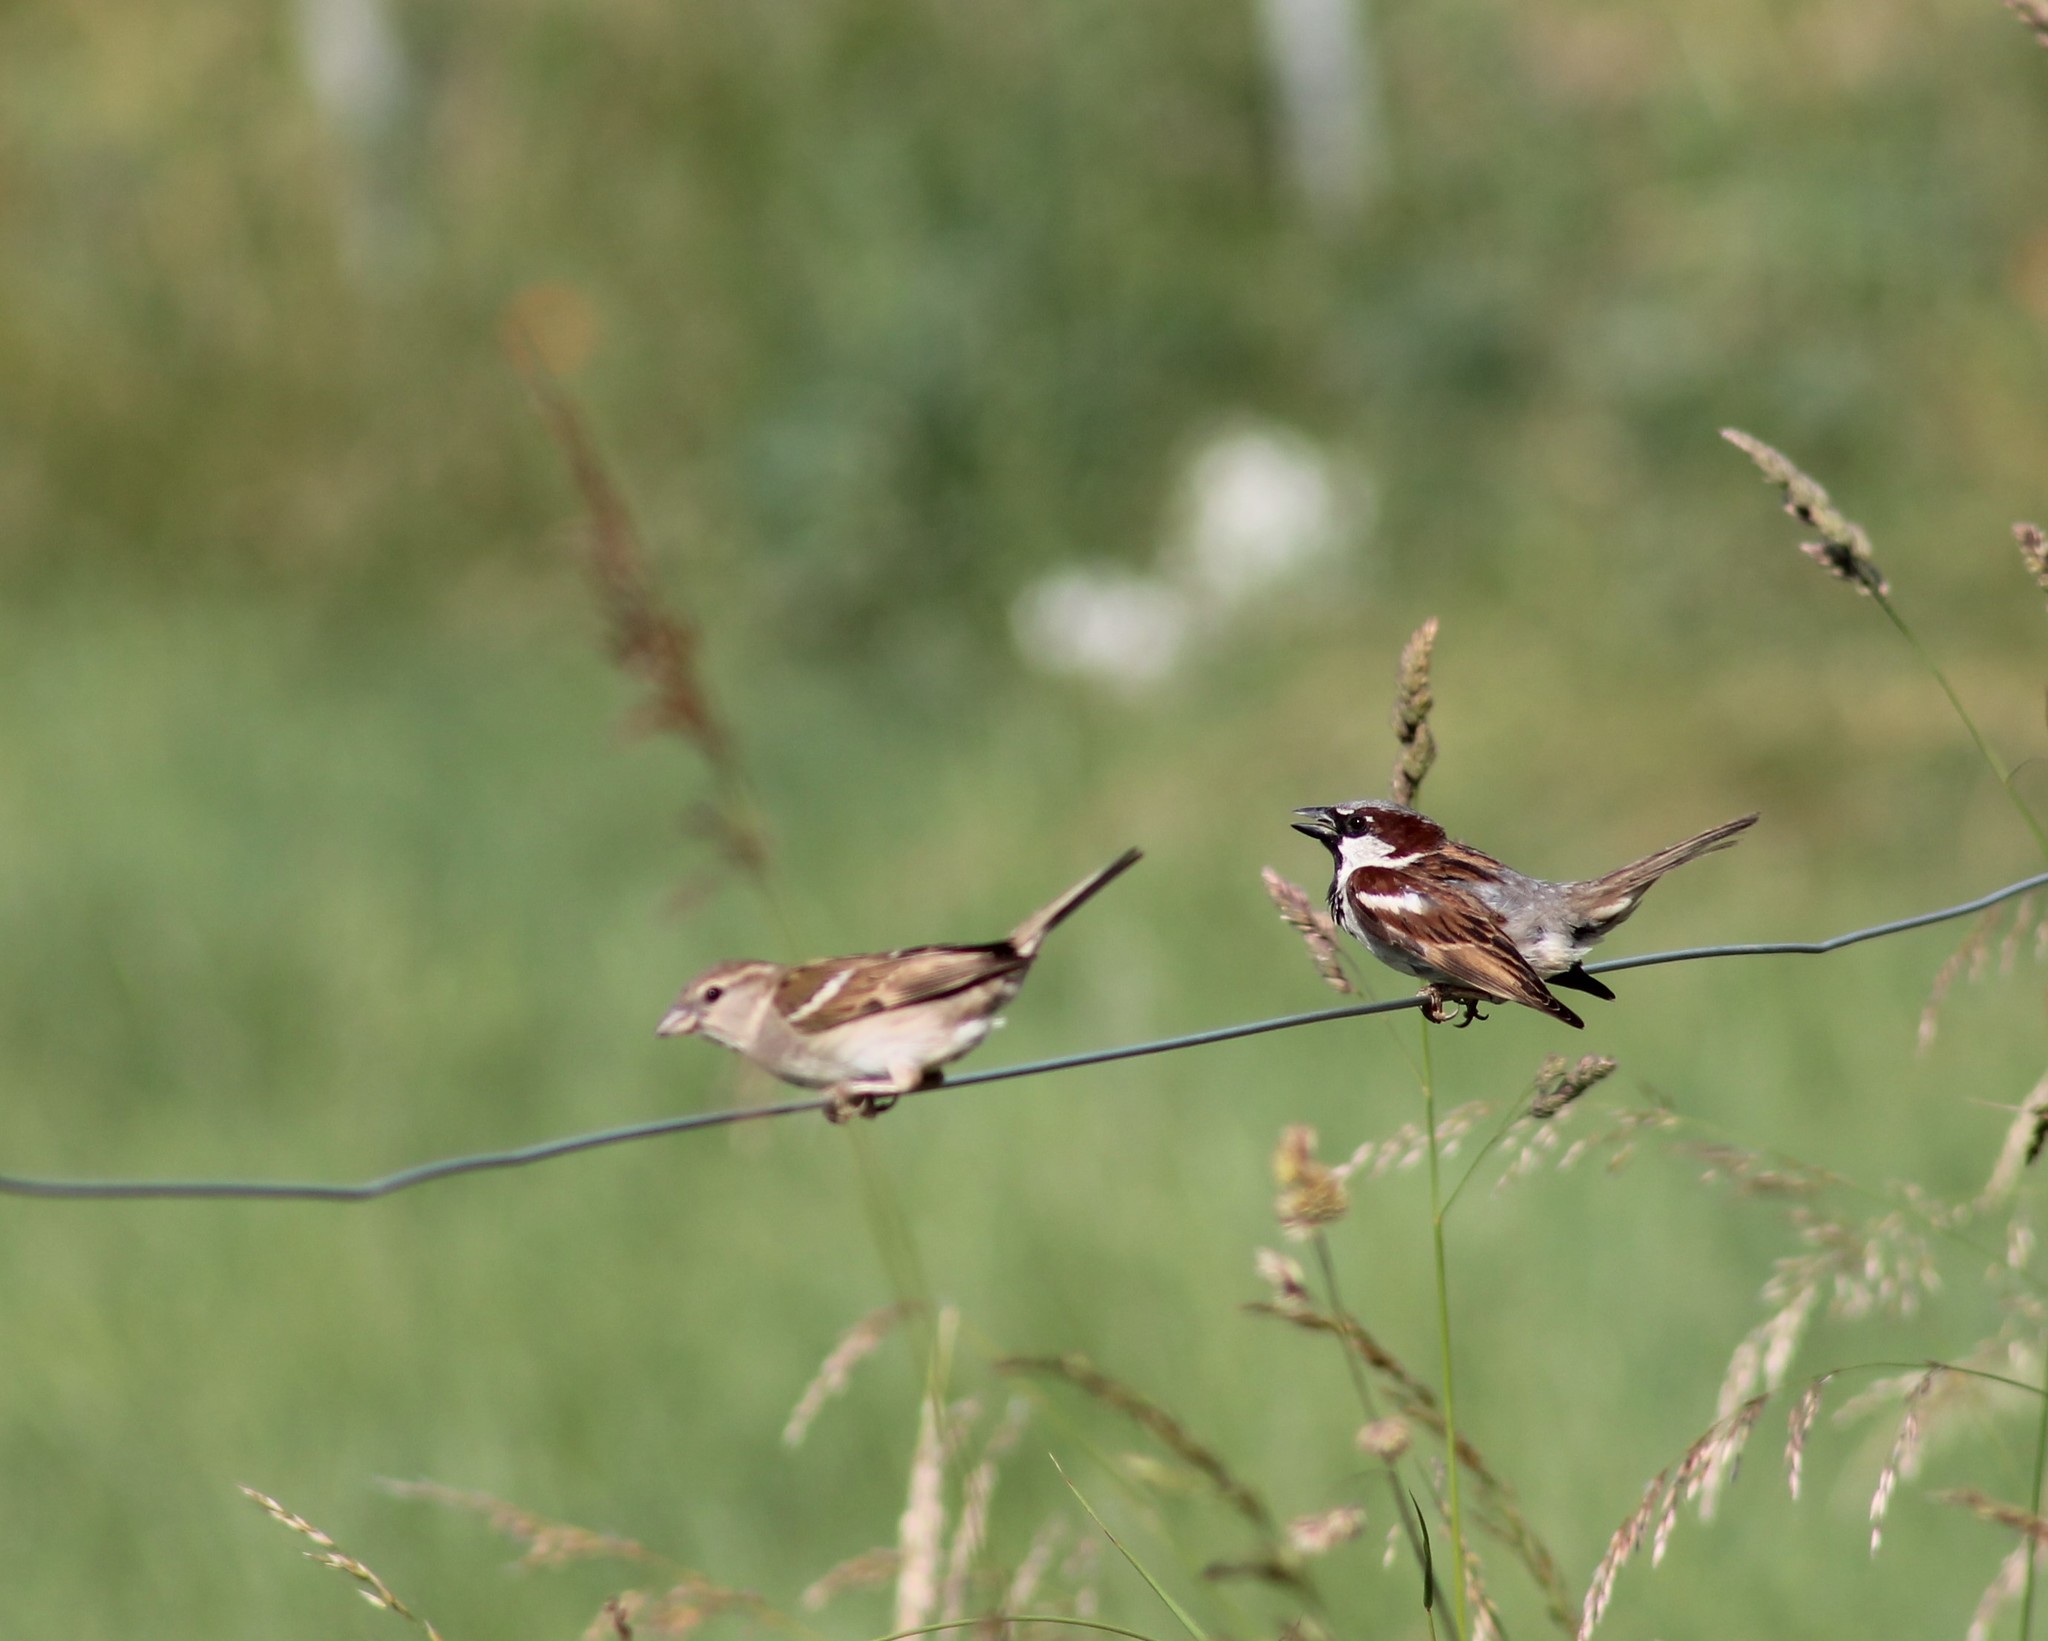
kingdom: Animalia
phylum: Chordata
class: Aves
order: Passeriformes
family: Passeridae
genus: Passer
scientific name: Passer domesticus
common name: House sparrow
